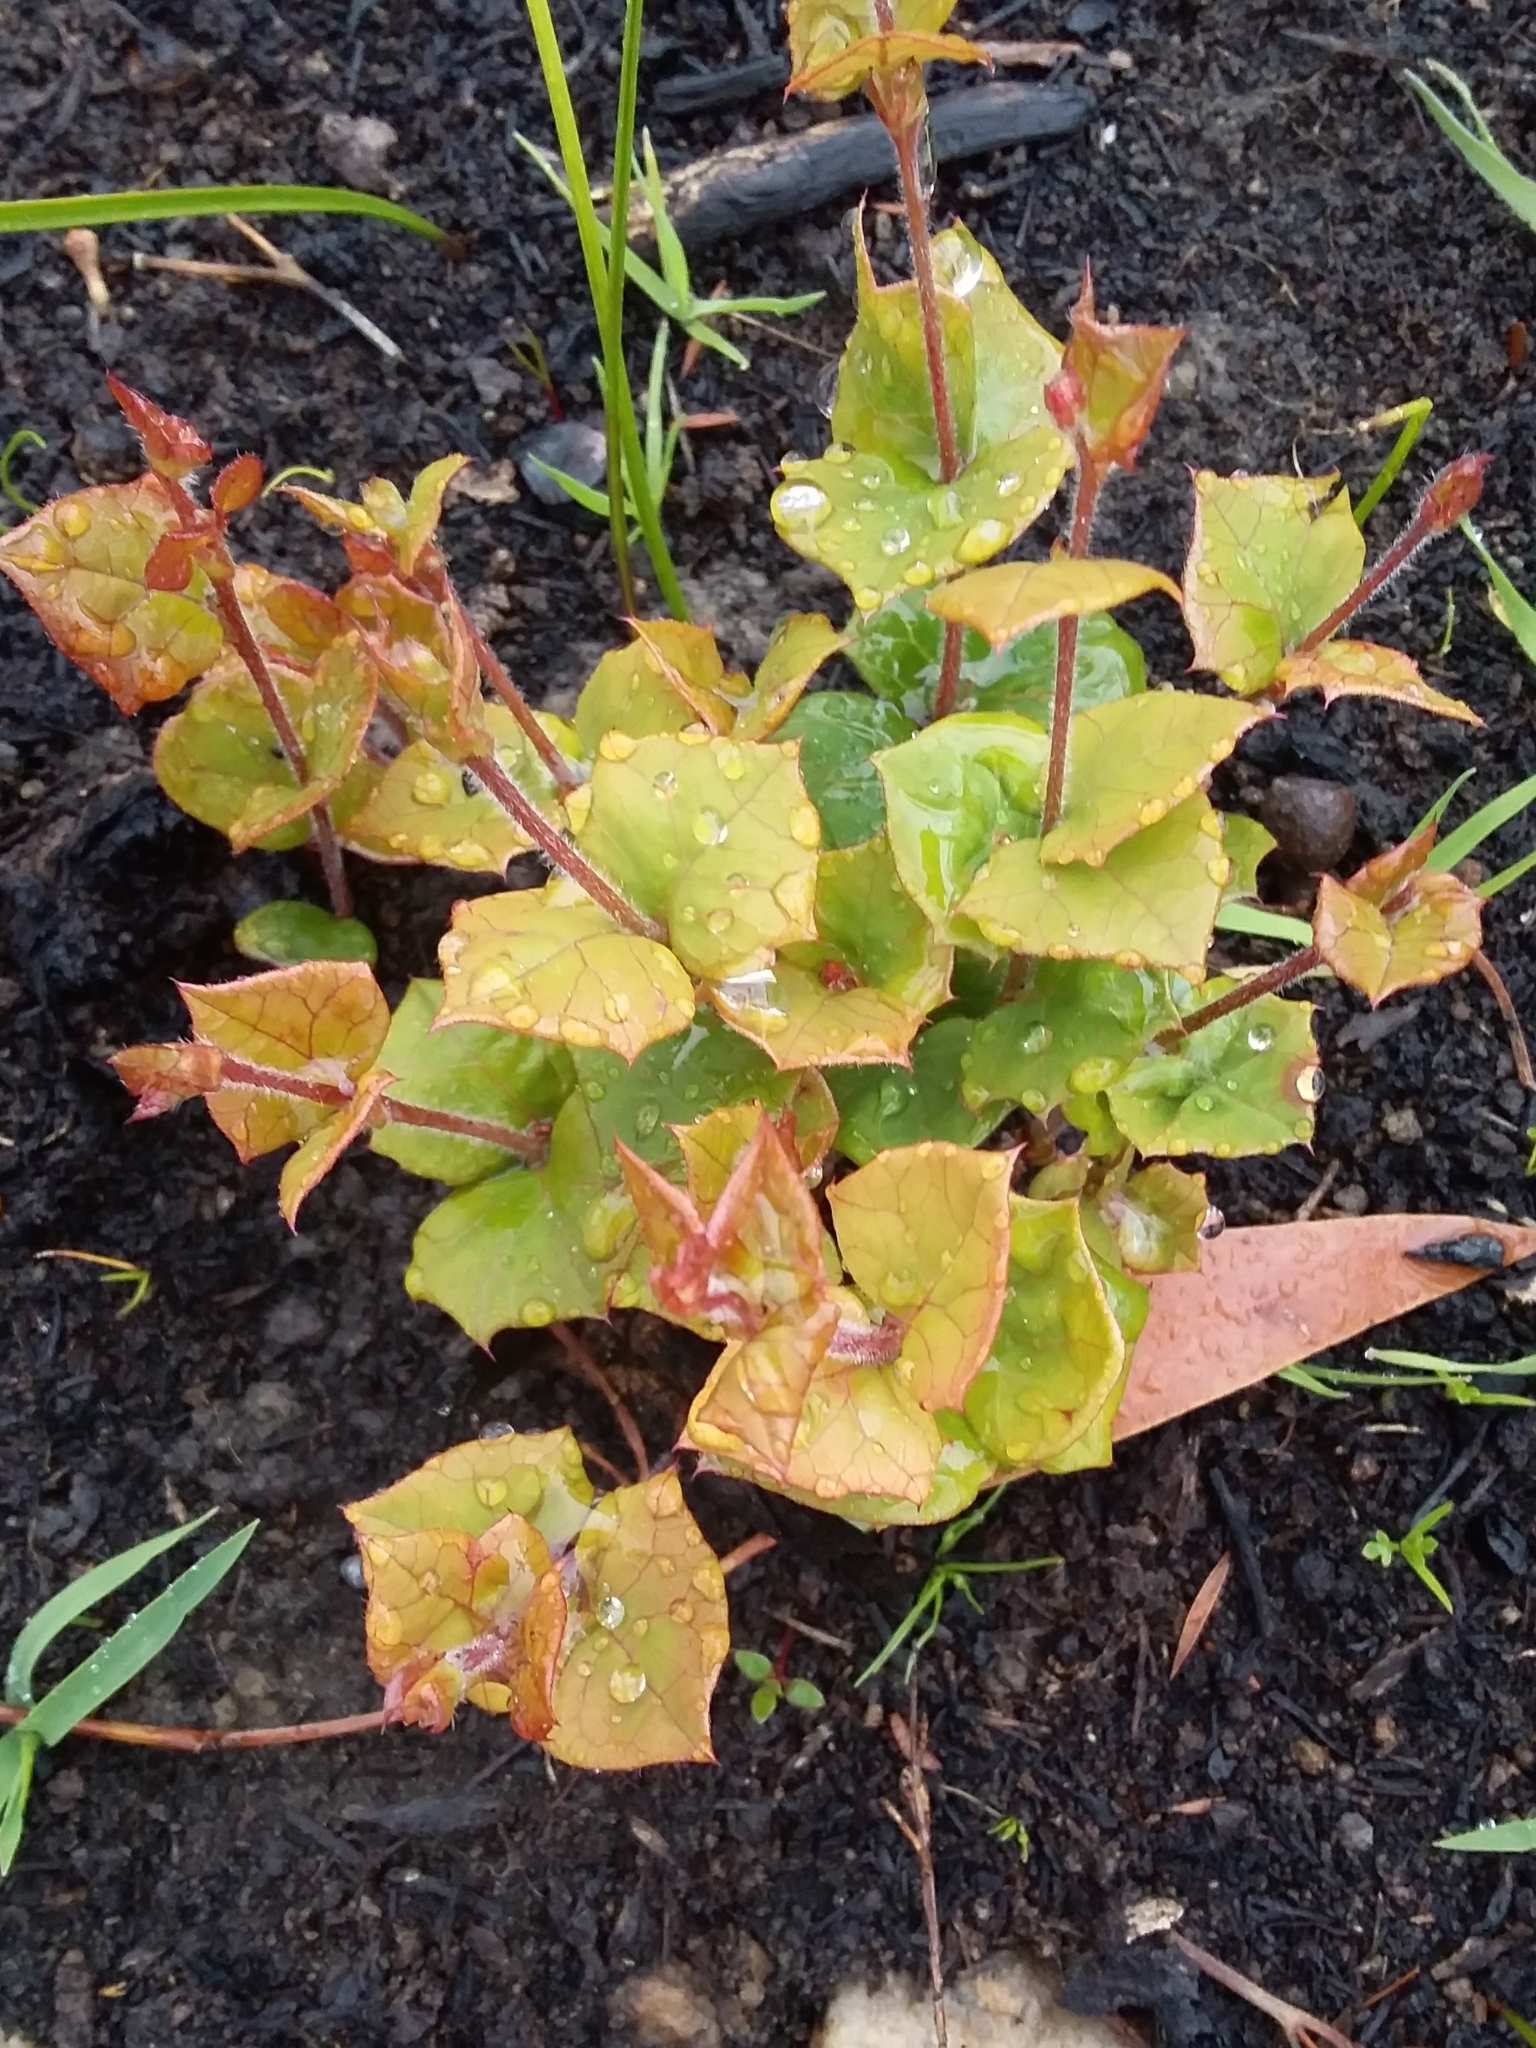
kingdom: Plantae
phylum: Tracheophyta
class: Magnoliopsida
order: Fabales
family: Fabaceae
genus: Platylobium
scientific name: Platylobium obtusangulum
